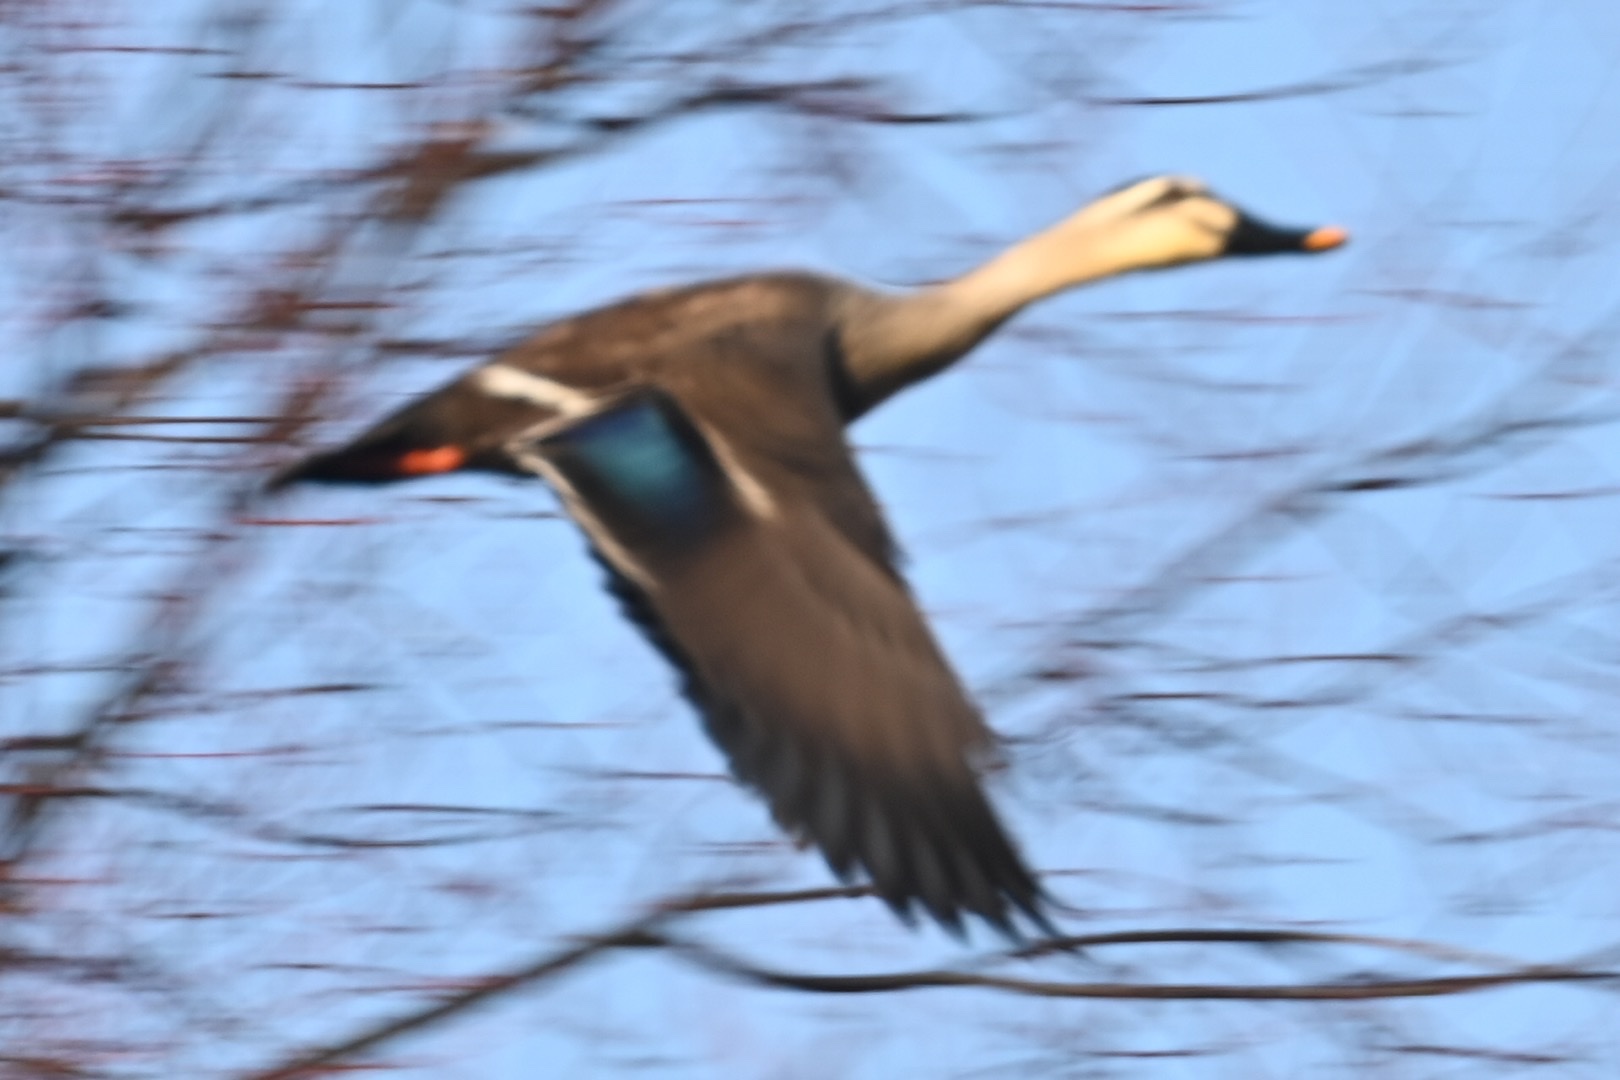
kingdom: Animalia
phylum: Chordata
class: Aves
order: Anseriformes
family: Anatidae
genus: Anas
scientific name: Anas zonorhyncha
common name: Eastern spot-billed duck
